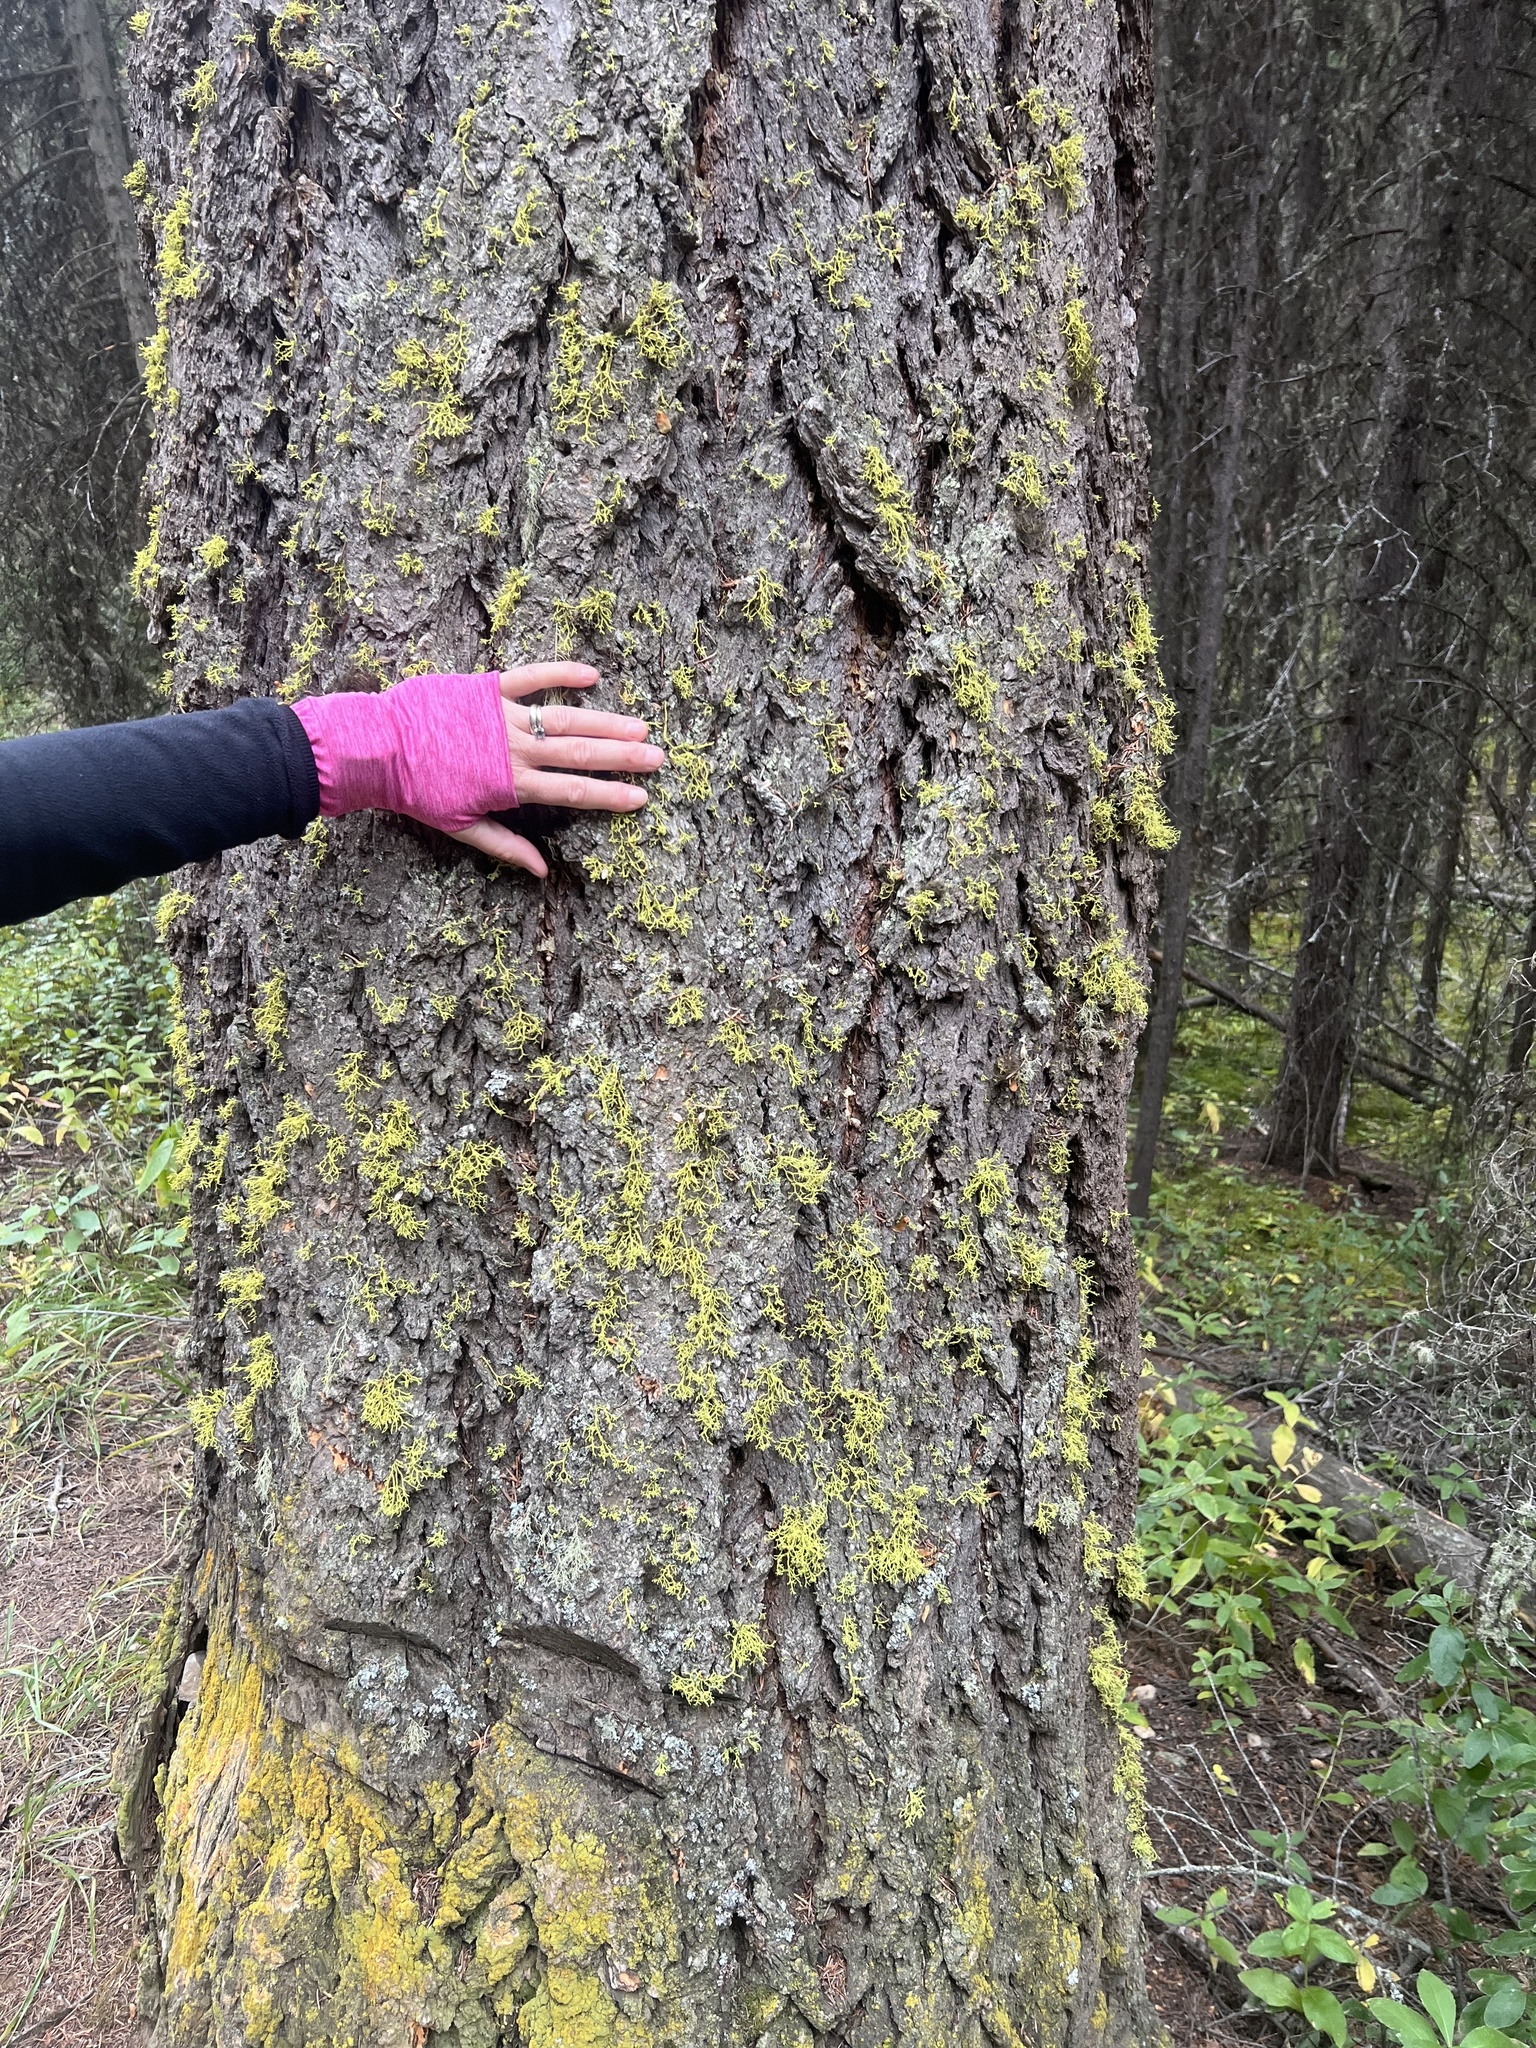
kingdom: Plantae
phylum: Tracheophyta
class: Pinopsida
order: Pinales
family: Pinaceae
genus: Pseudotsuga
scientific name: Pseudotsuga menziesii
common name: Douglas fir
